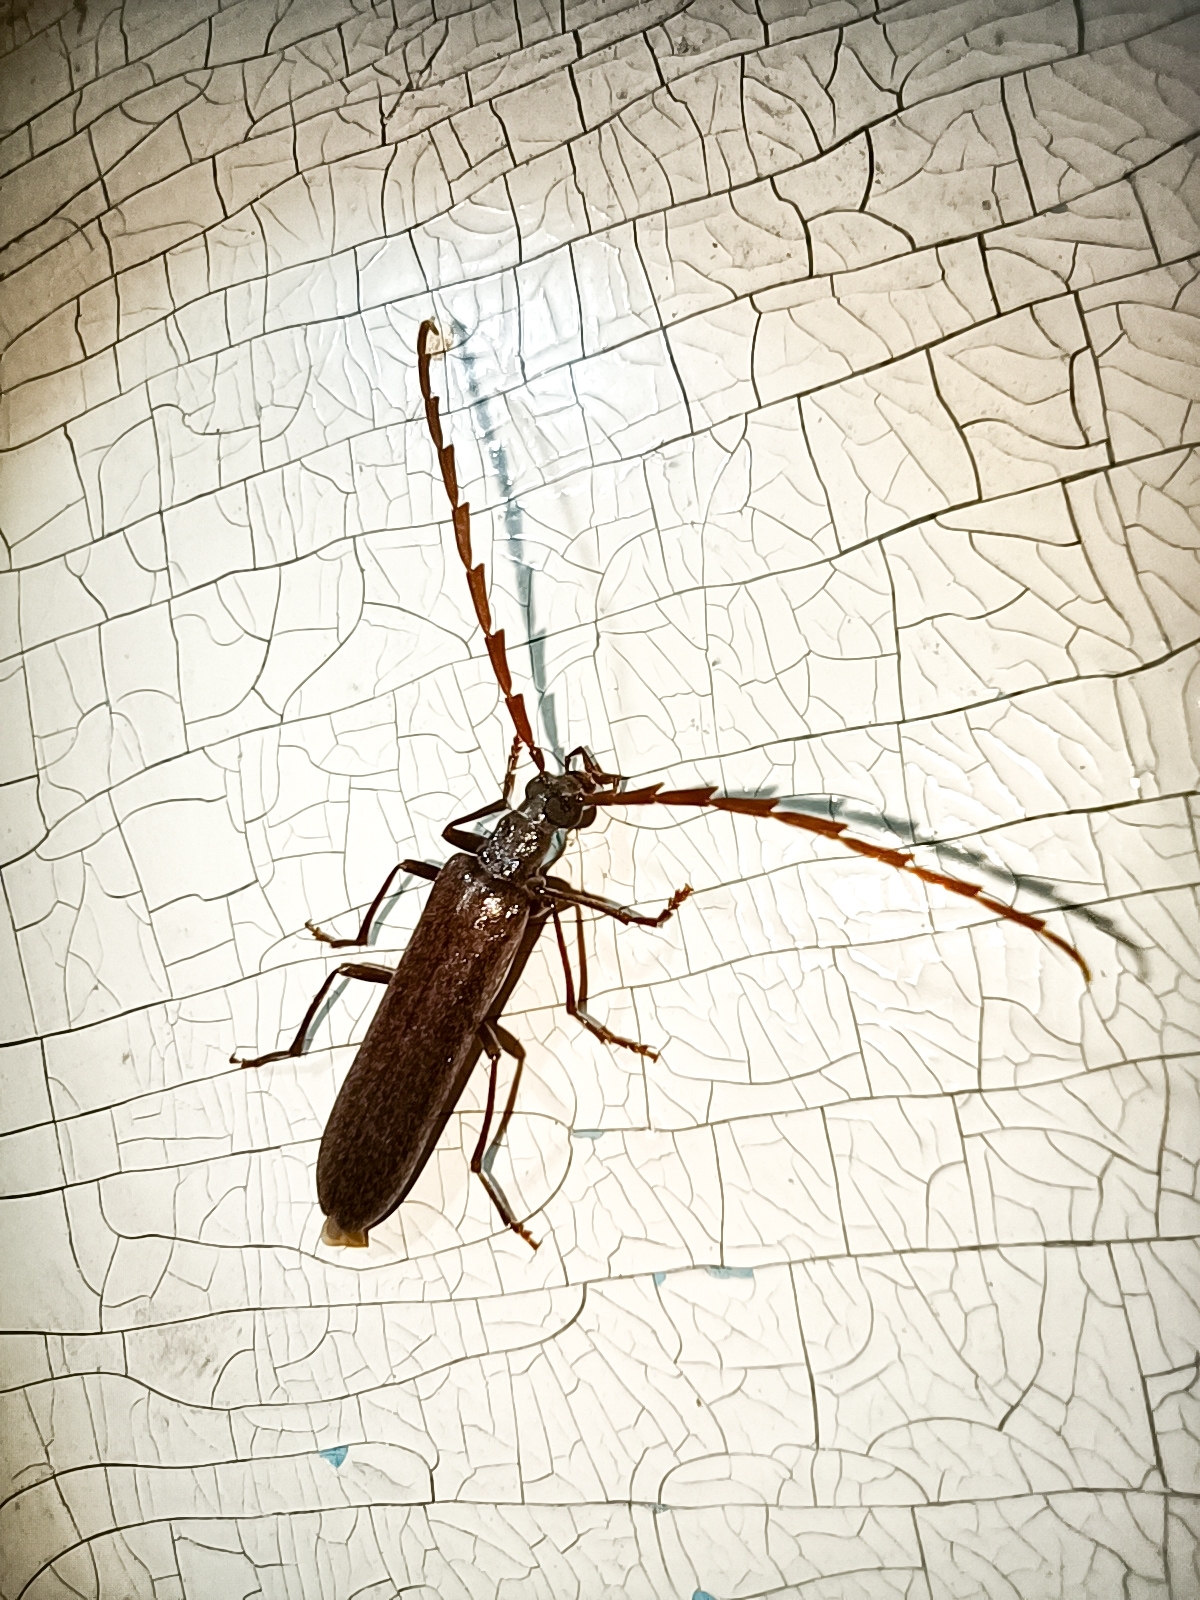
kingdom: Animalia
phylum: Arthropoda
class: Insecta
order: Coleoptera
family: Cerambycidae
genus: Vesperus
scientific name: Vesperus luridus
